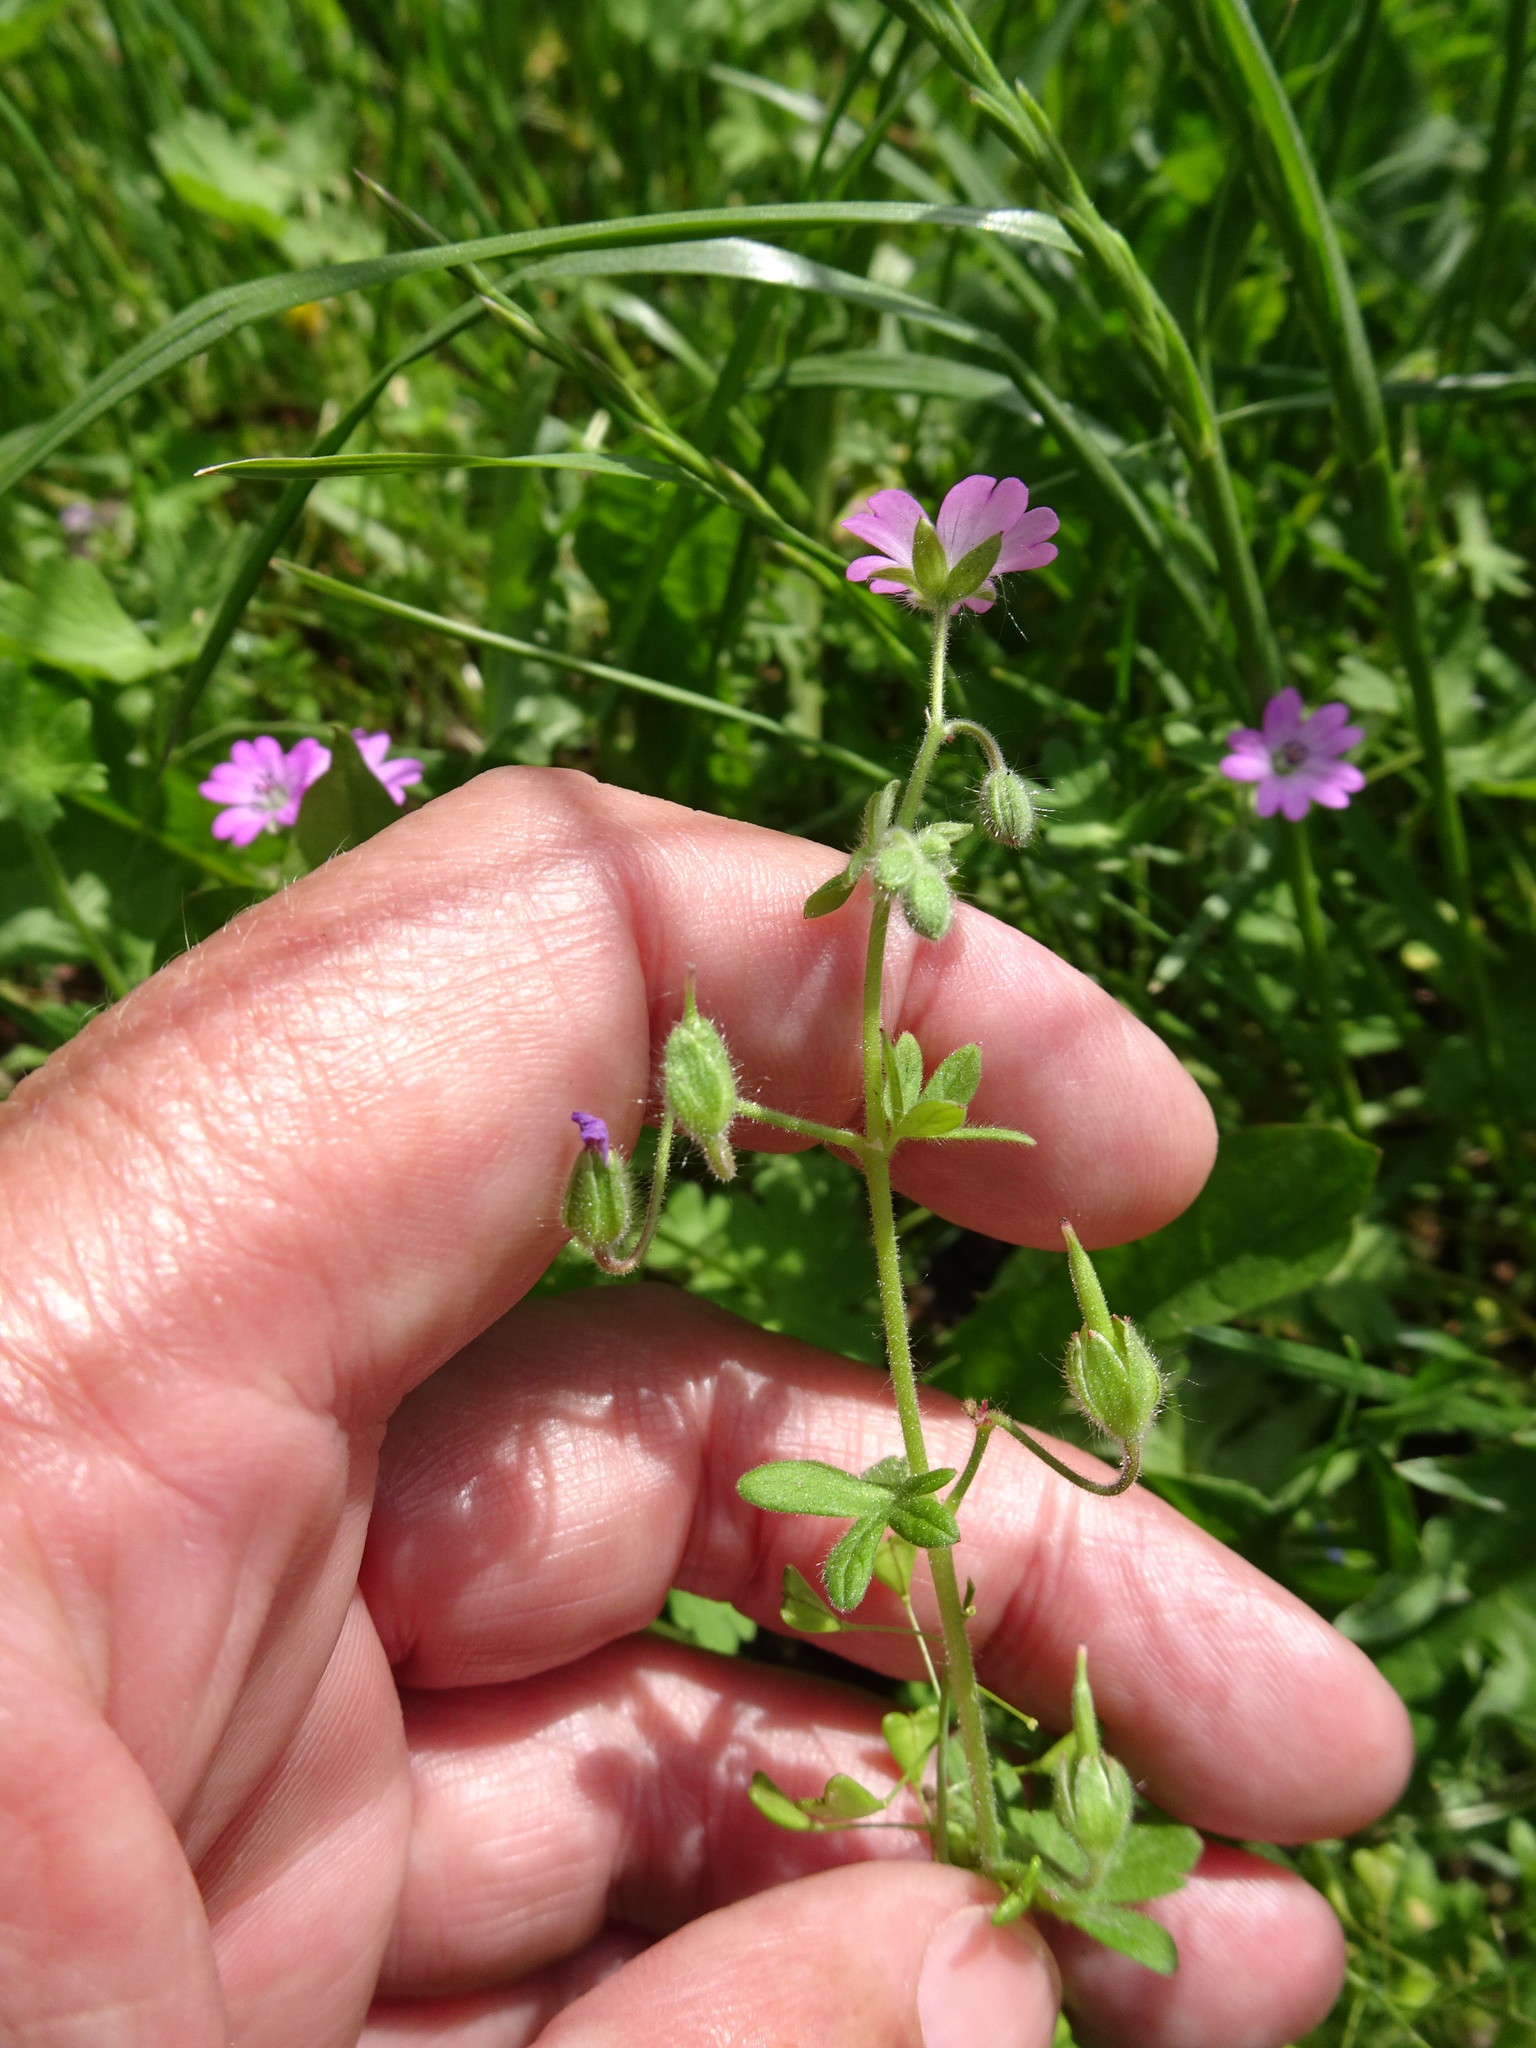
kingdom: Plantae
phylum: Tracheophyta
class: Magnoliopsida
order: Geraniales
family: Geraniaceae
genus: Geranium
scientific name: Geranium molle
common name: Dove's-foot crane's-bill
